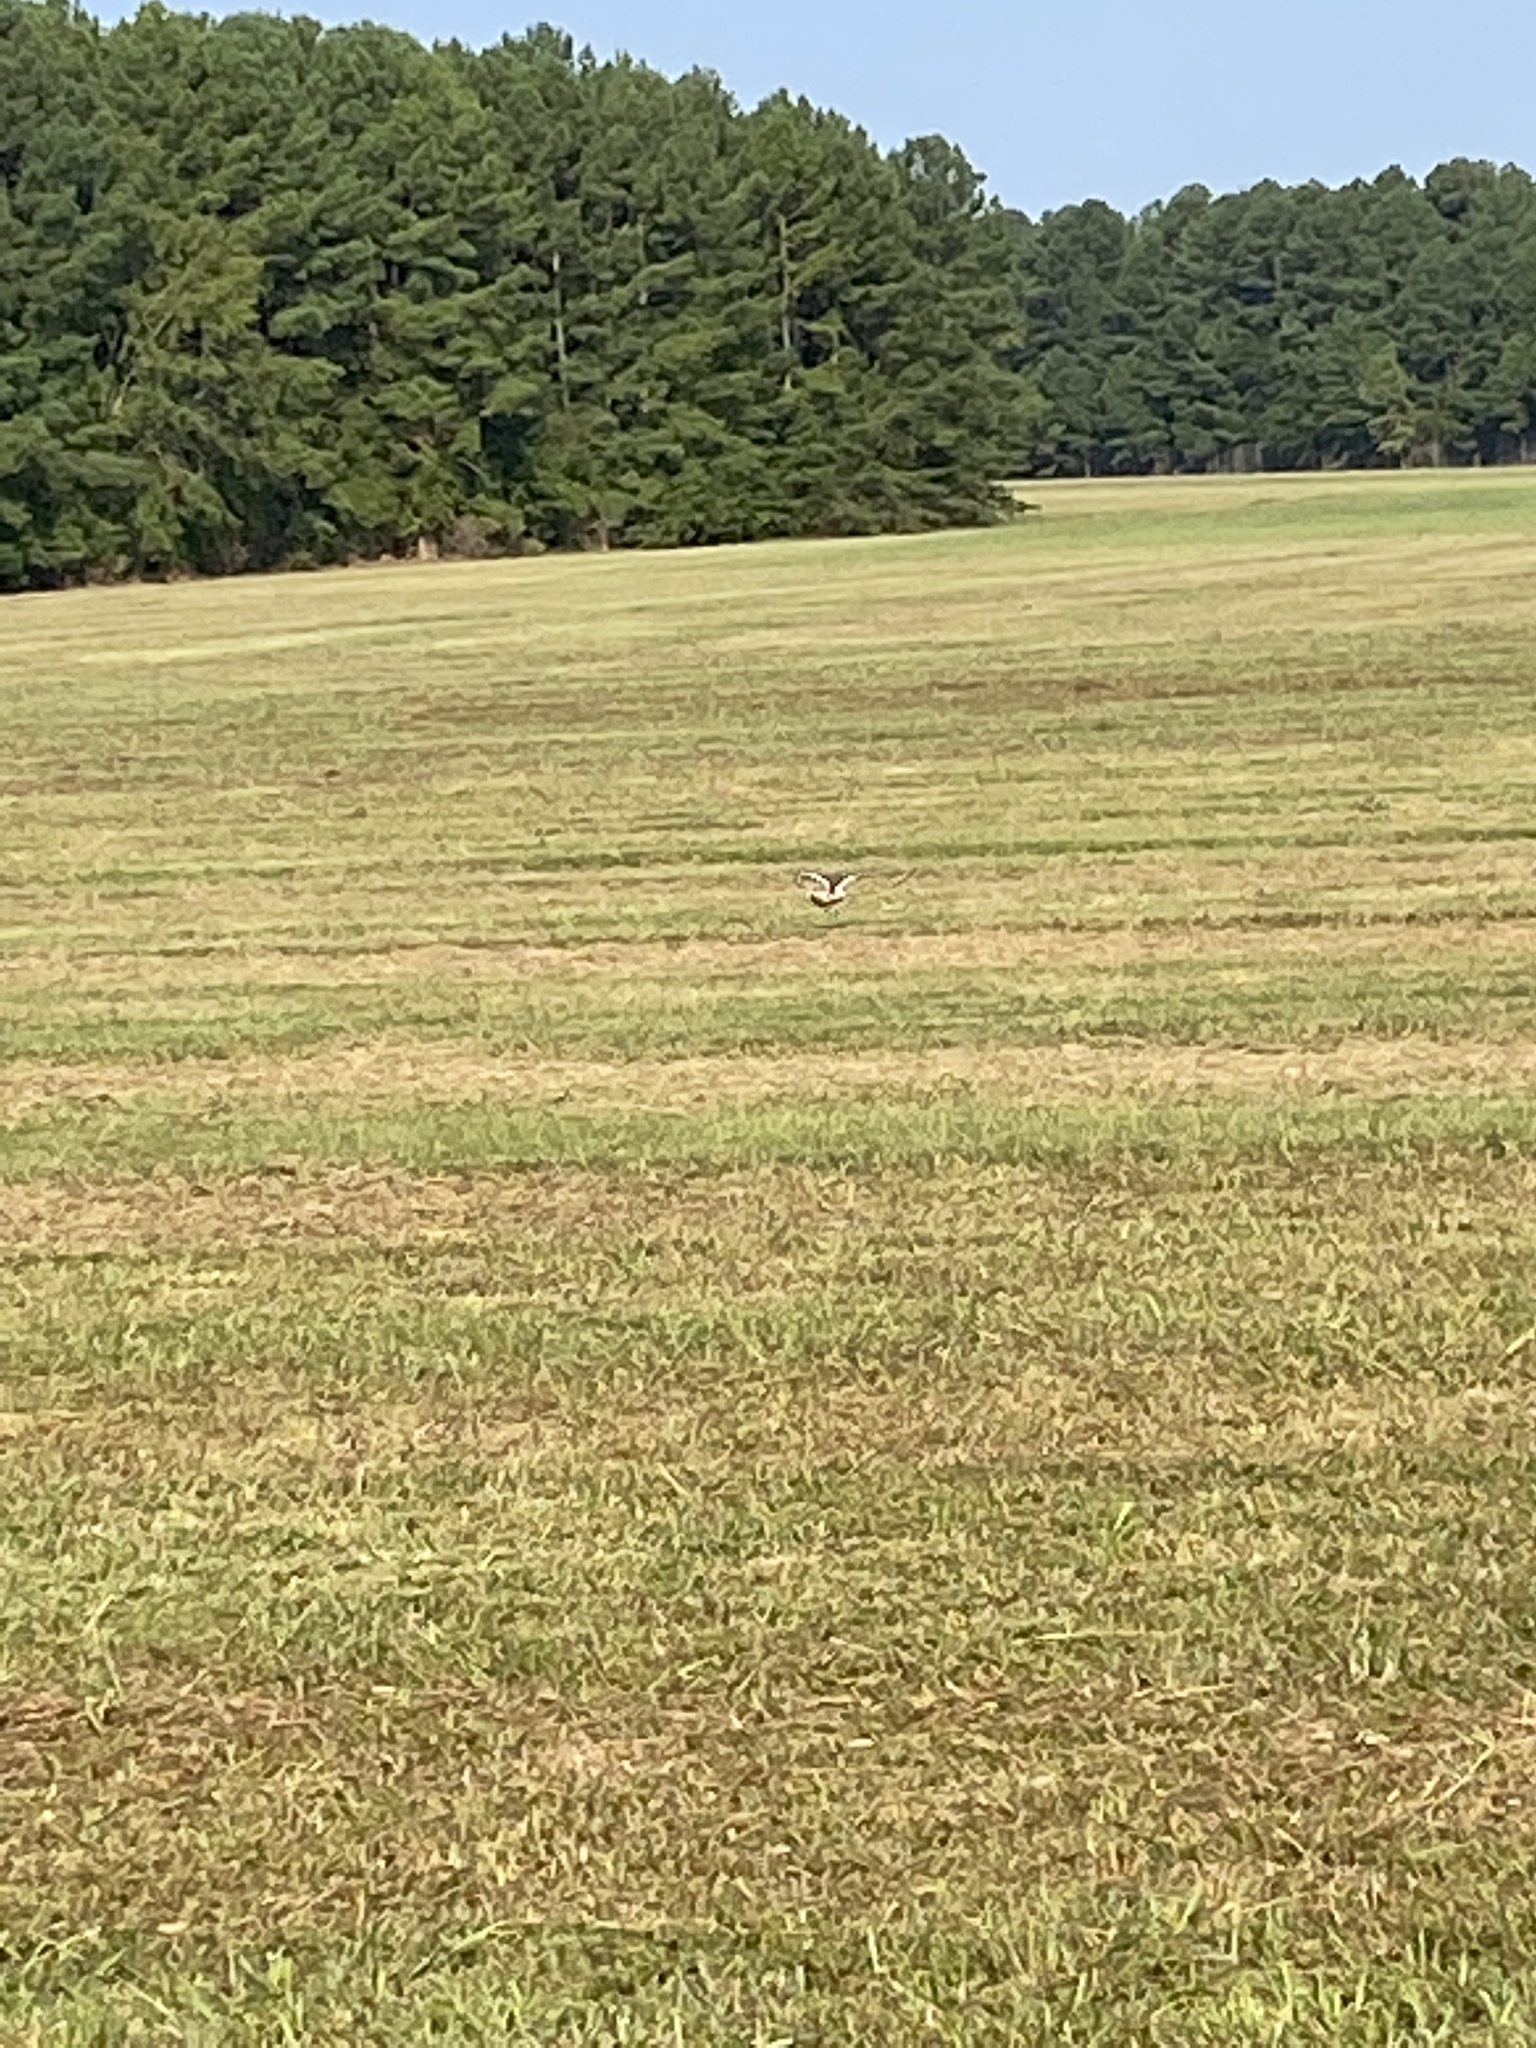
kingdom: Animalia
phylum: Chordata
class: Aves
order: Charadriiformes
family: Charadriidae
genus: Charadrius
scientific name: Charadrius vociferus
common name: Killdeer
